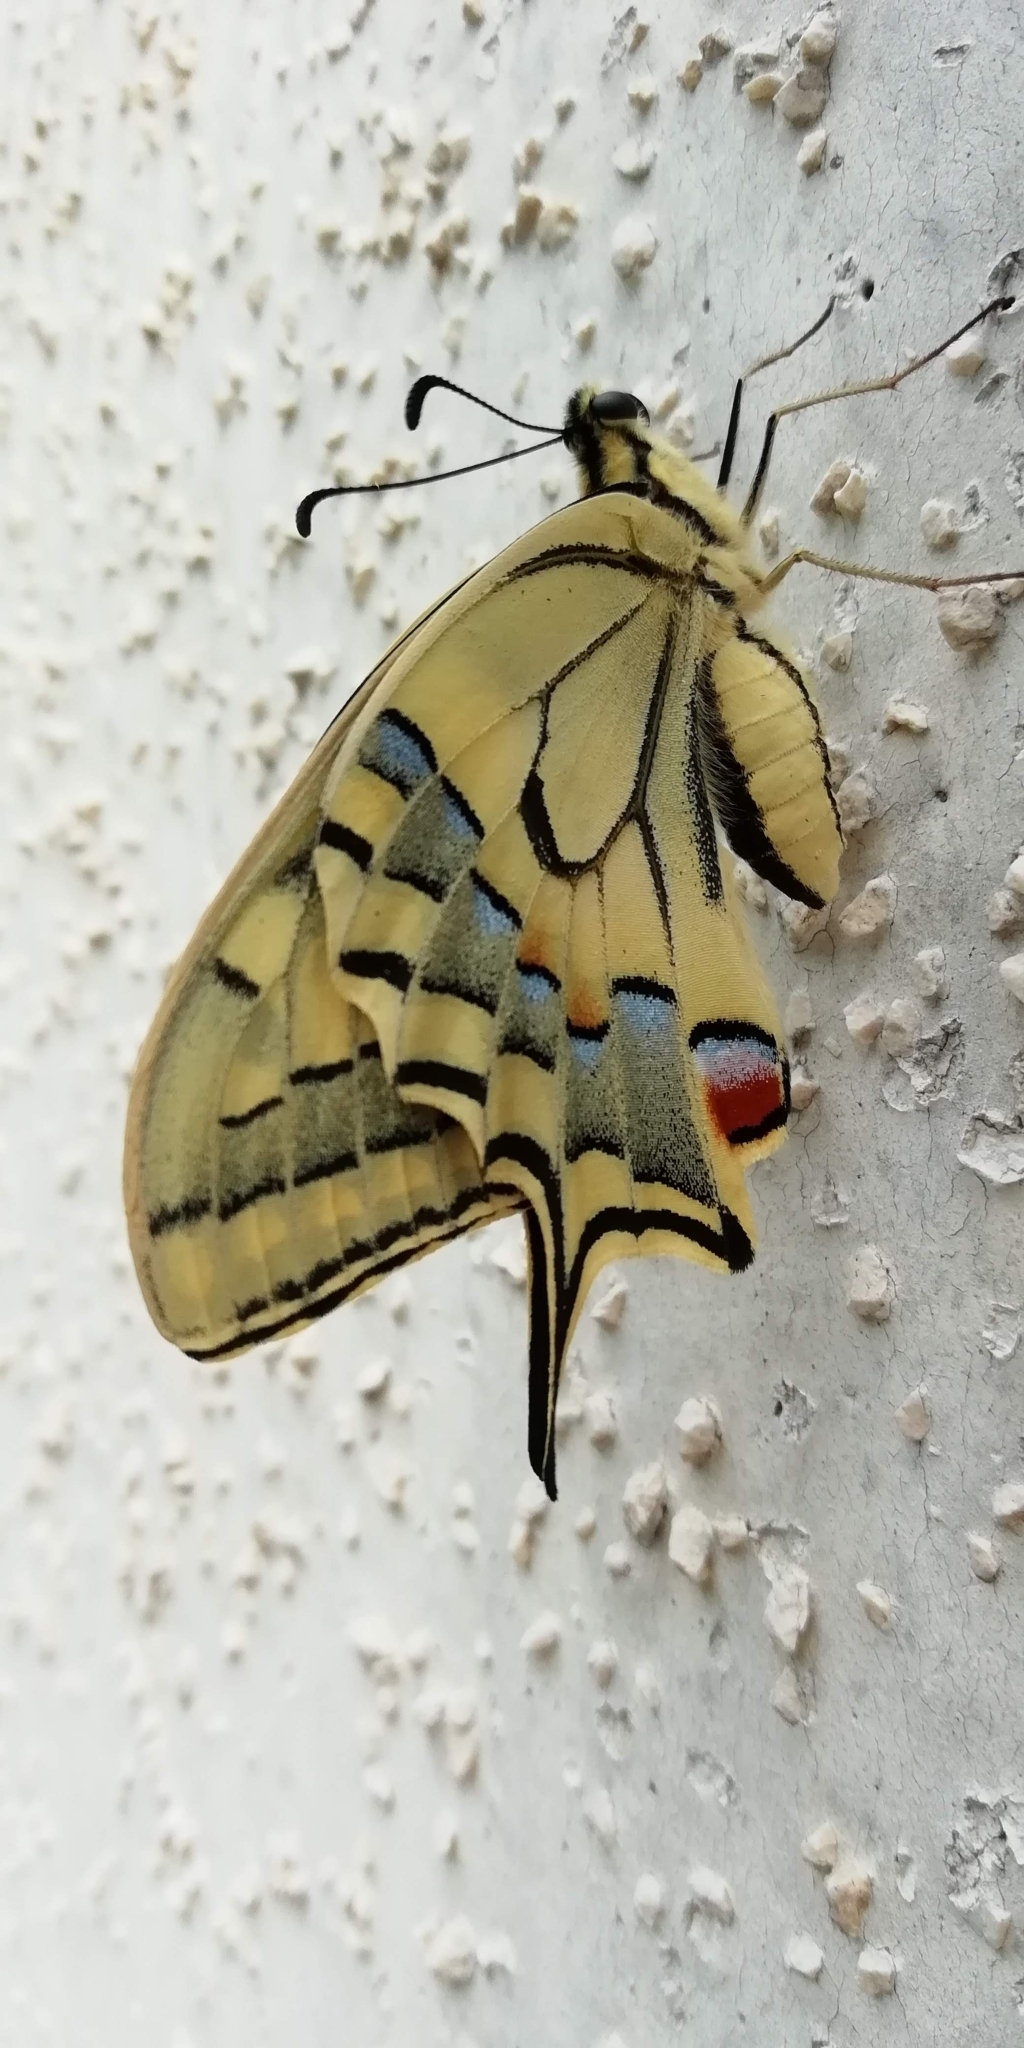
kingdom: Animalia
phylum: Arthropoda
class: Insecta
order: Lepidoptera
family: Papilionidae
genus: Papilio
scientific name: Papilio machaon
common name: Swallowtail
